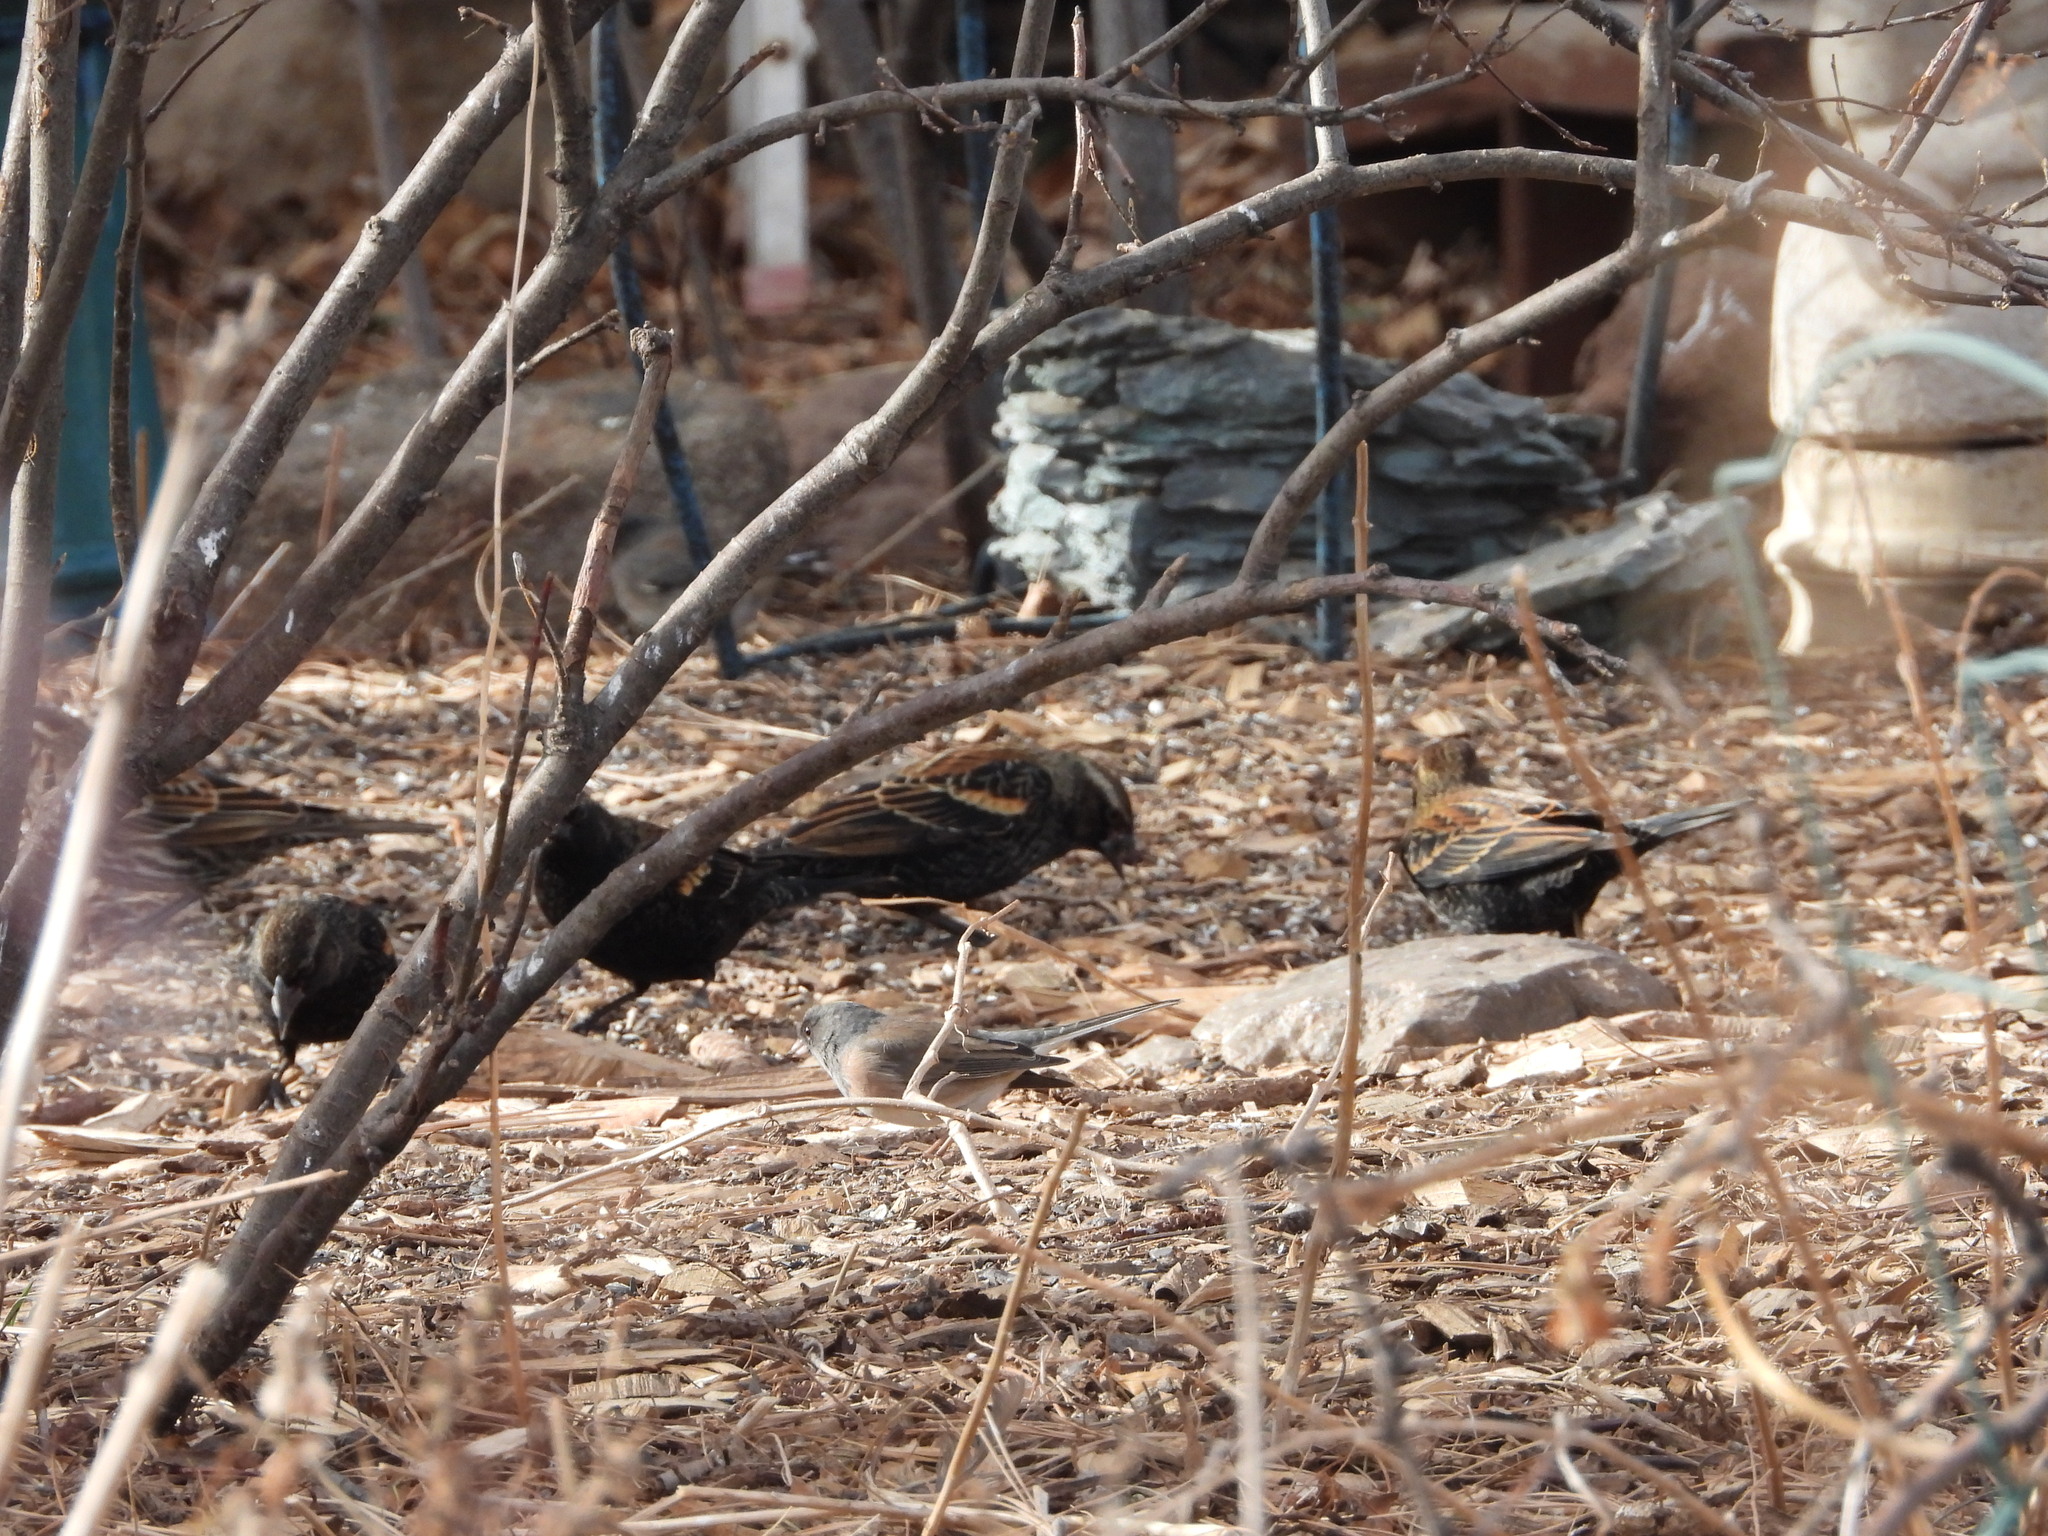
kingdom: Animalia
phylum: Chordata
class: Aves
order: Passeriformes
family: Icteridae
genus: Agelaius
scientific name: Agelaius phoeniceus
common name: Red-winged blackbird
